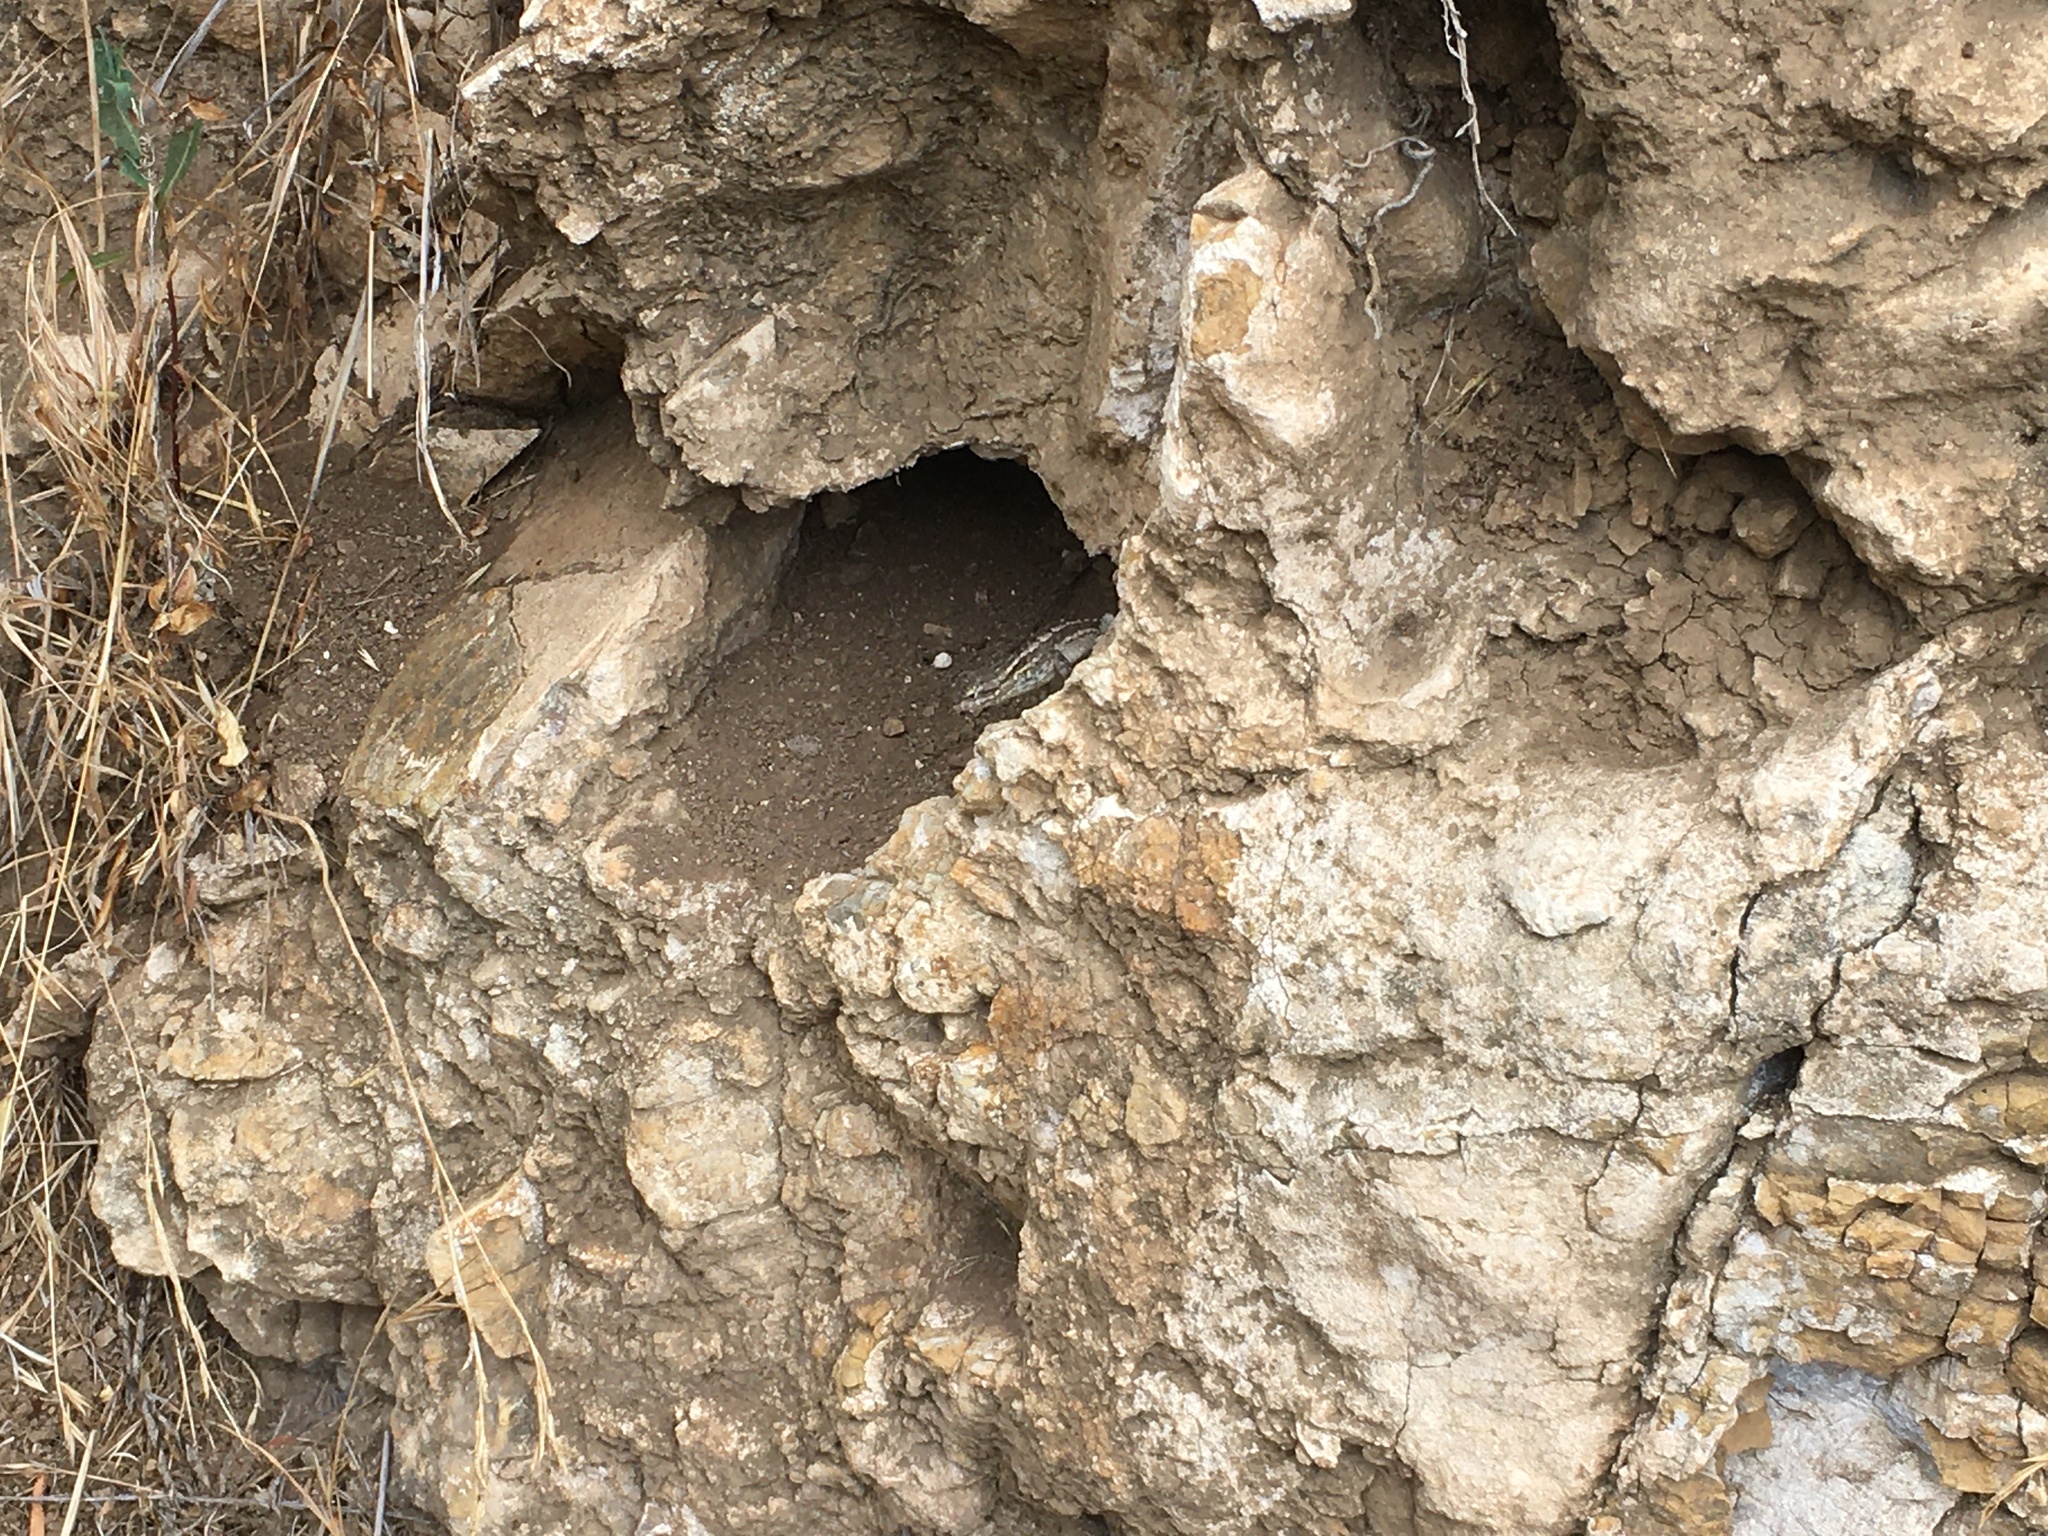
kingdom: Animalia
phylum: Chordata
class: Squamata
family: Phrynosomatidae
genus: Sceloporus
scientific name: Sceloporus occidentalis
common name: Western fence lizard
